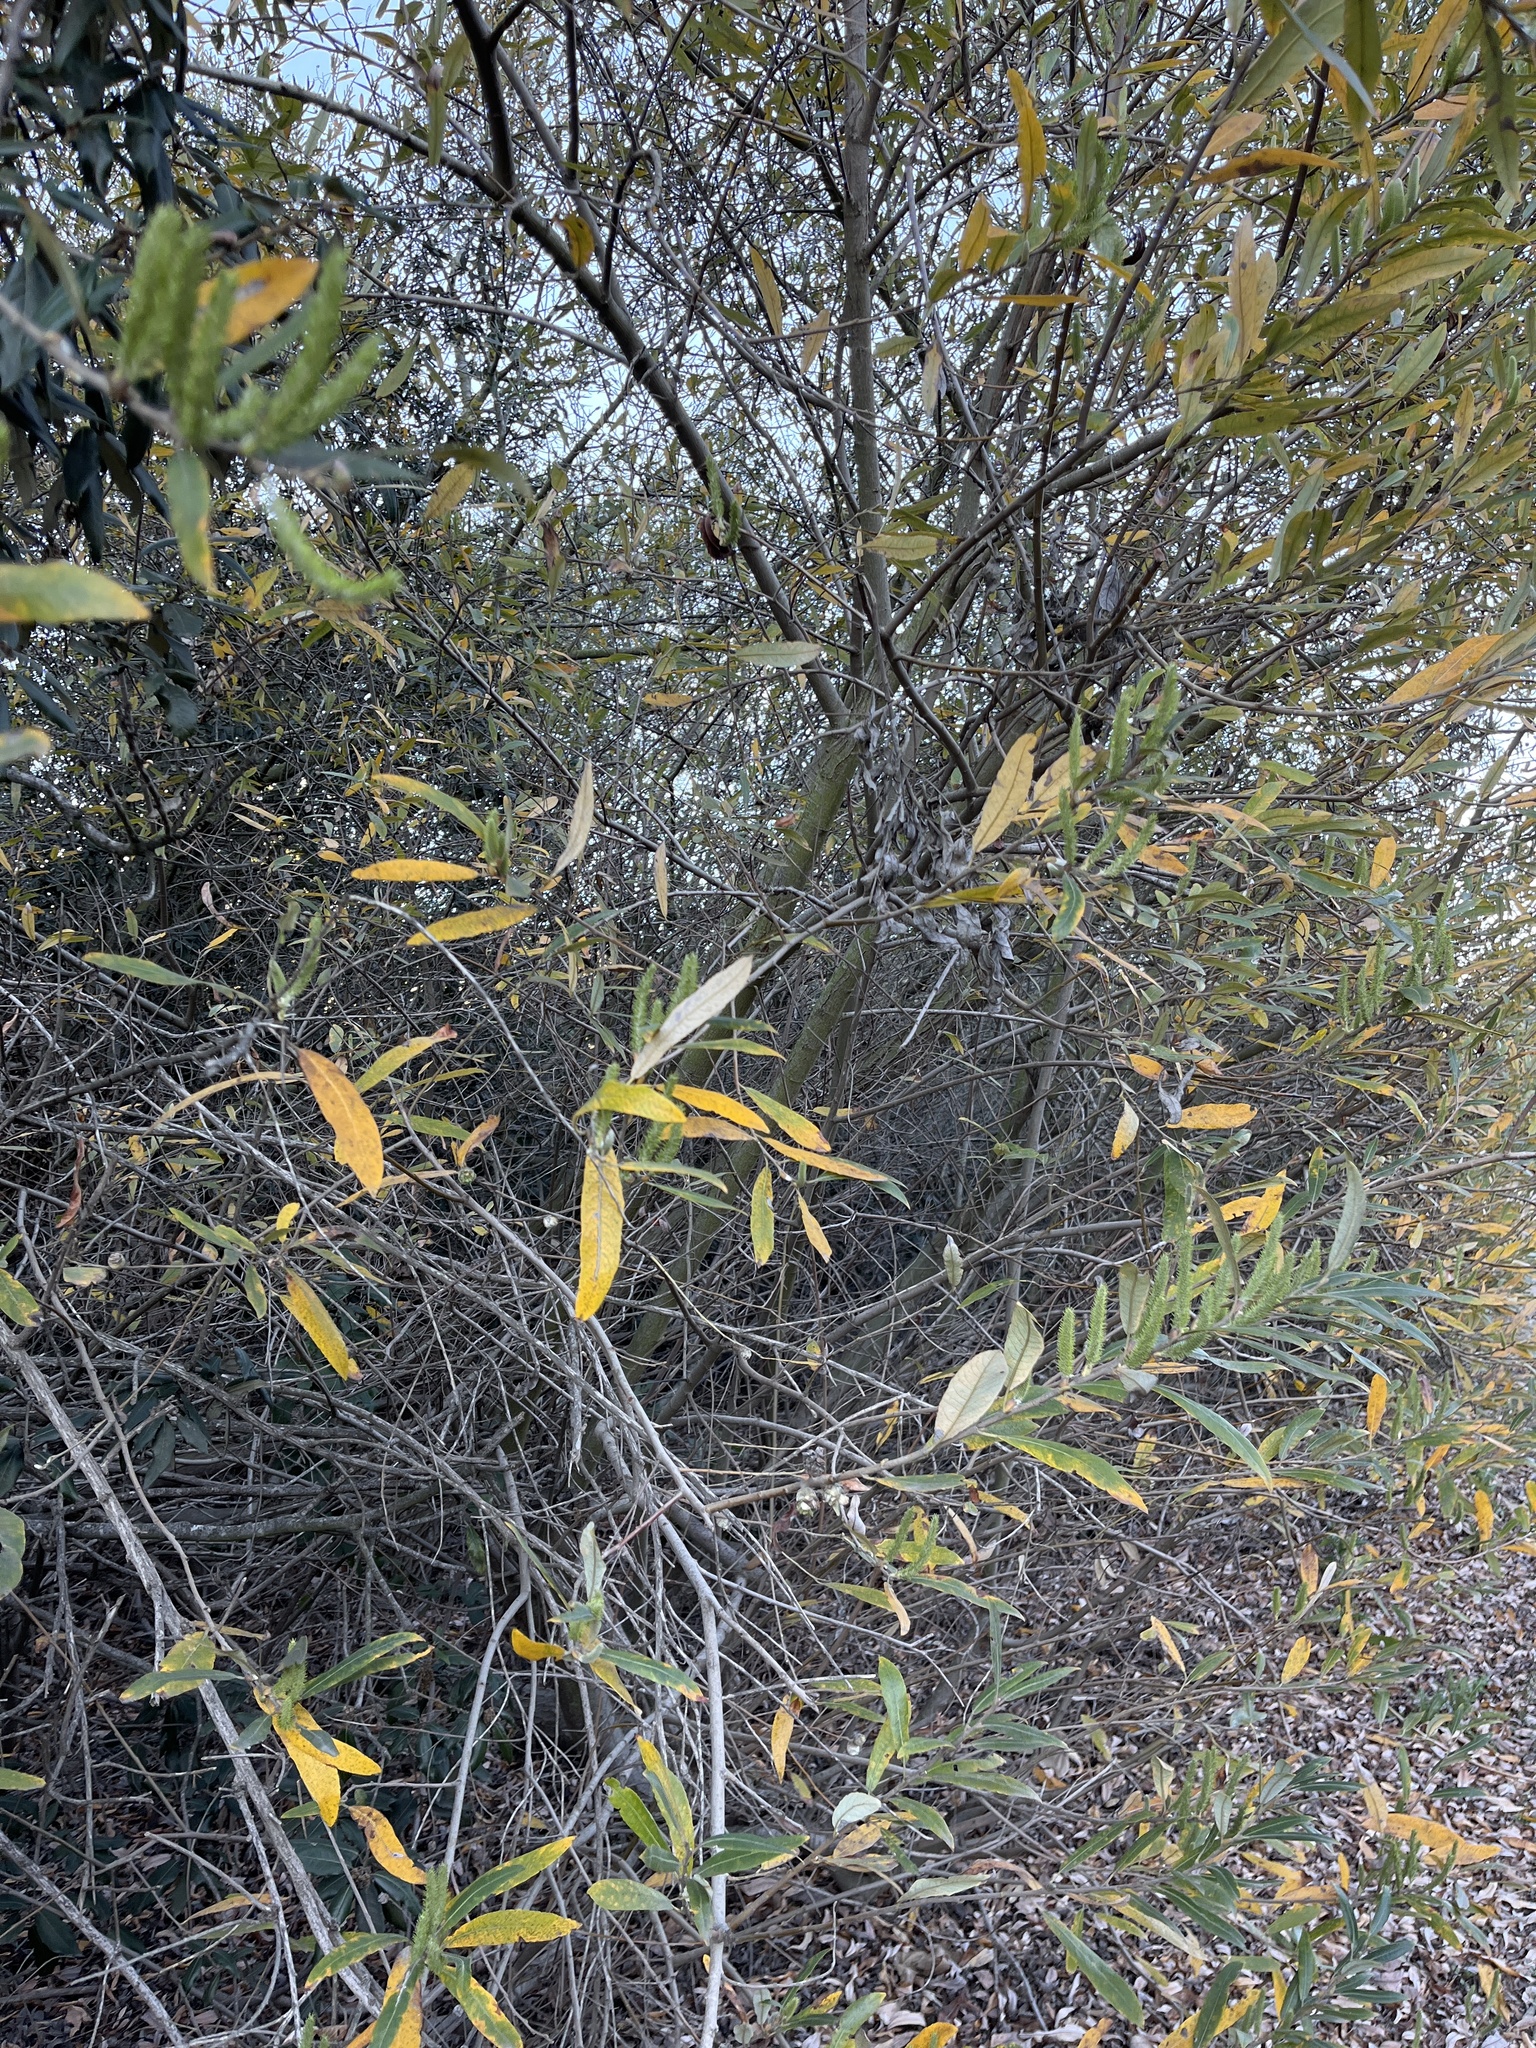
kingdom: Plantae
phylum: Tracheophyta
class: Magnoliopsida
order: Malpighiales
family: Salicaceae
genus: Salix
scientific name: Salix lasiolepis
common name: Arroyo willow
